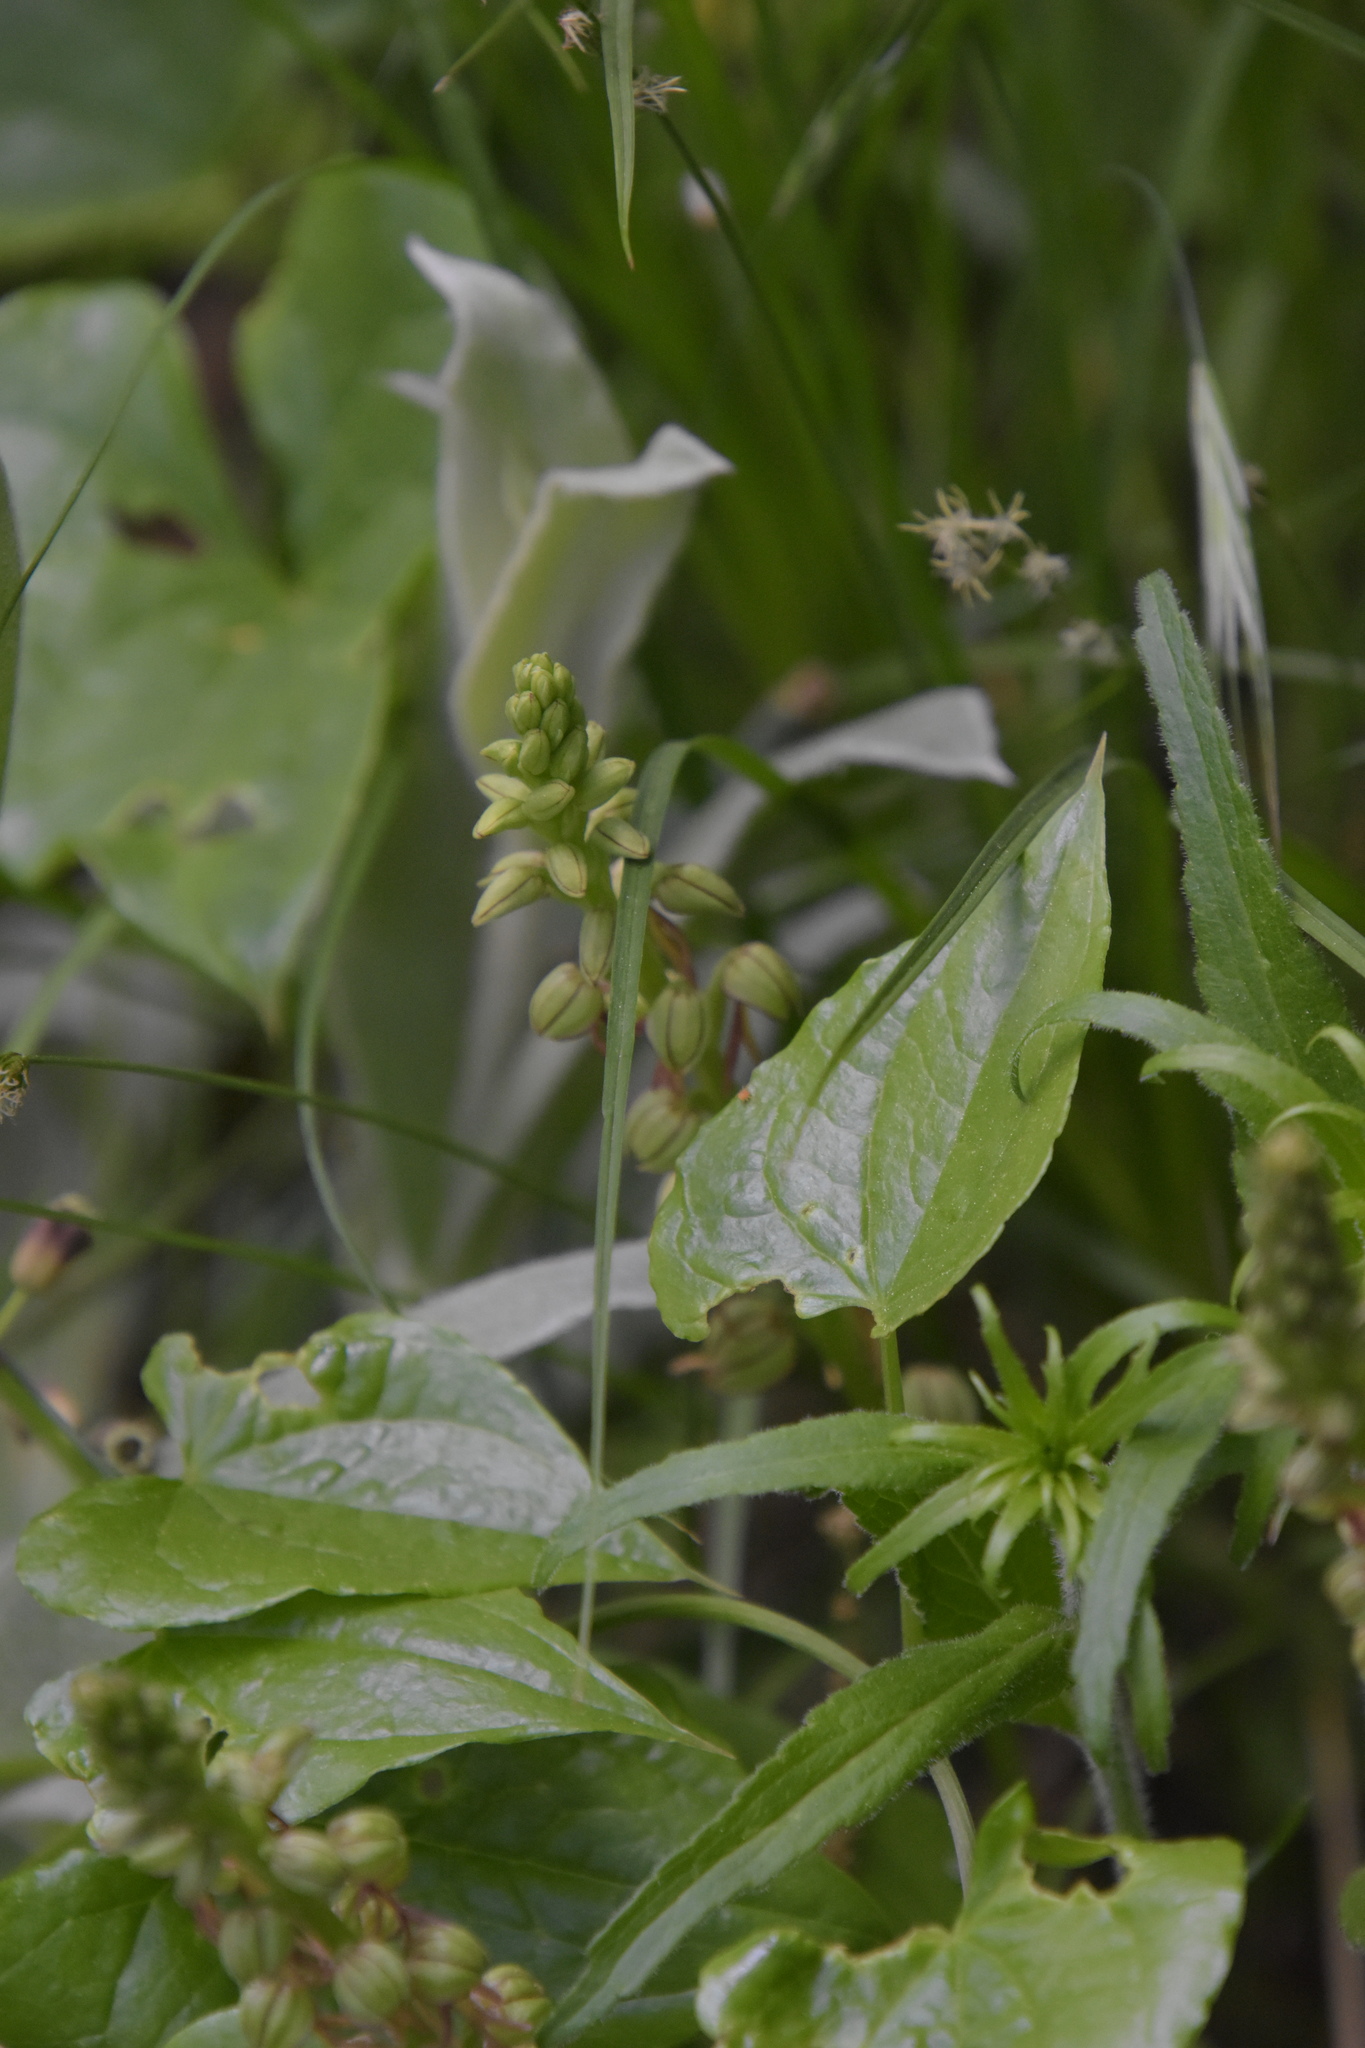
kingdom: Plantae
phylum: Tracheophyta
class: Liliopsida
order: Asparagales
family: Orchidaceae
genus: Orchis
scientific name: Orchis anthropophora
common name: Man orchid
